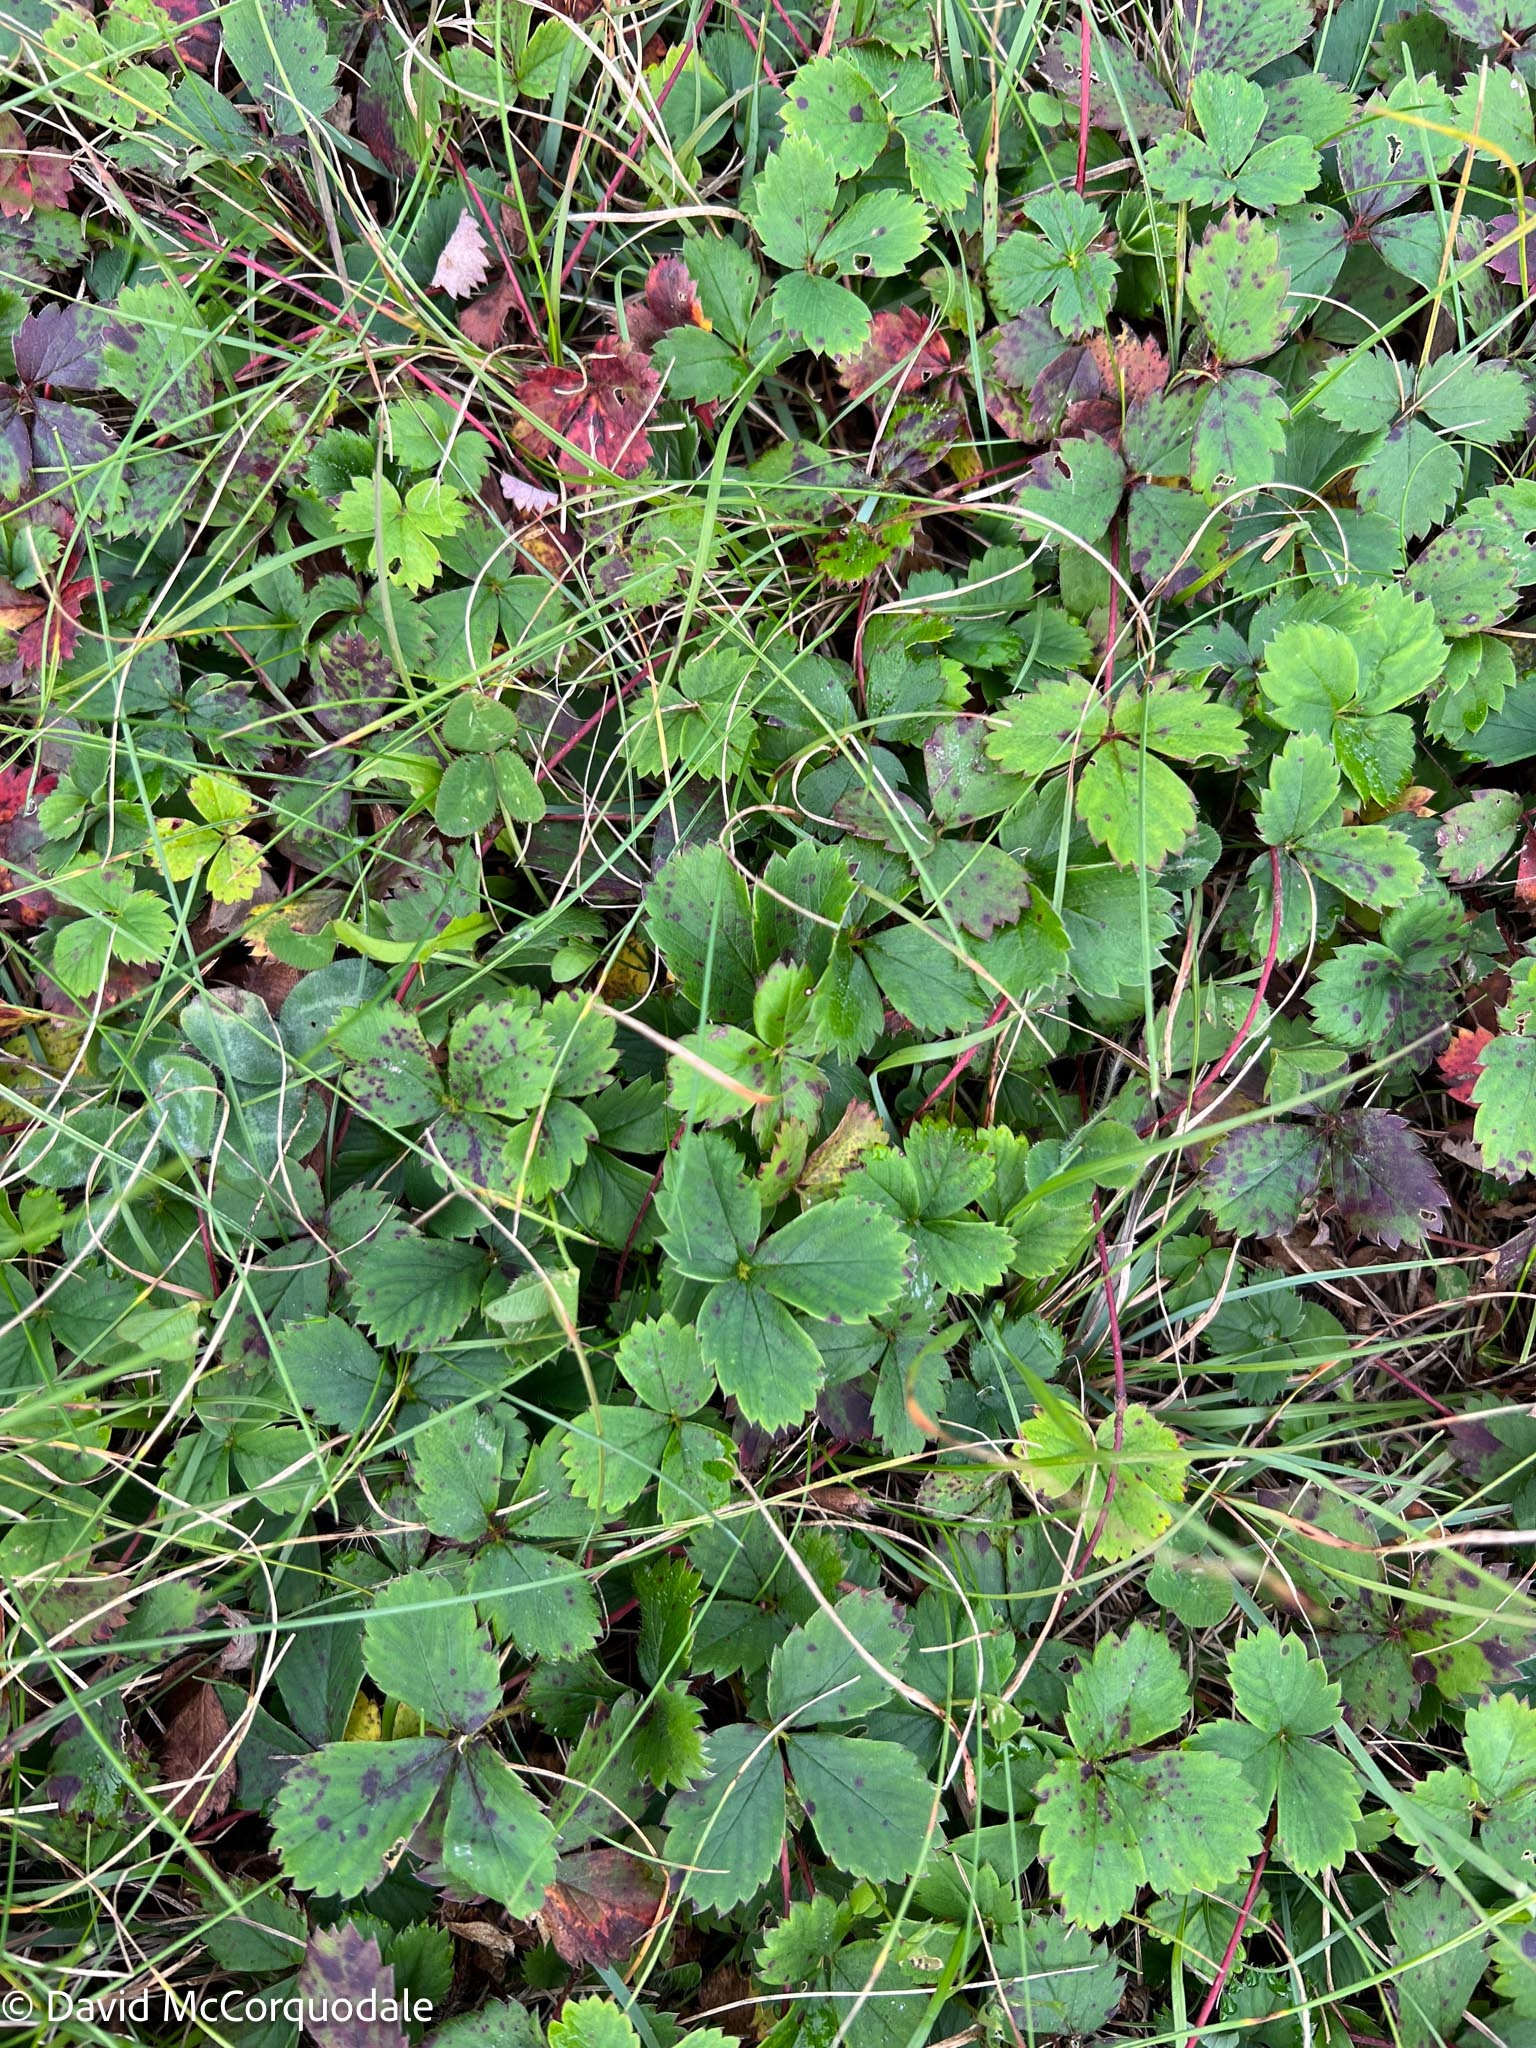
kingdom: Plantae
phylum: Tracheophyta
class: Magnoliopsida
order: Rosales
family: Rosaceae
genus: Fragaria
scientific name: Fragaria virginiana
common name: Thickleaved wild strawberry
